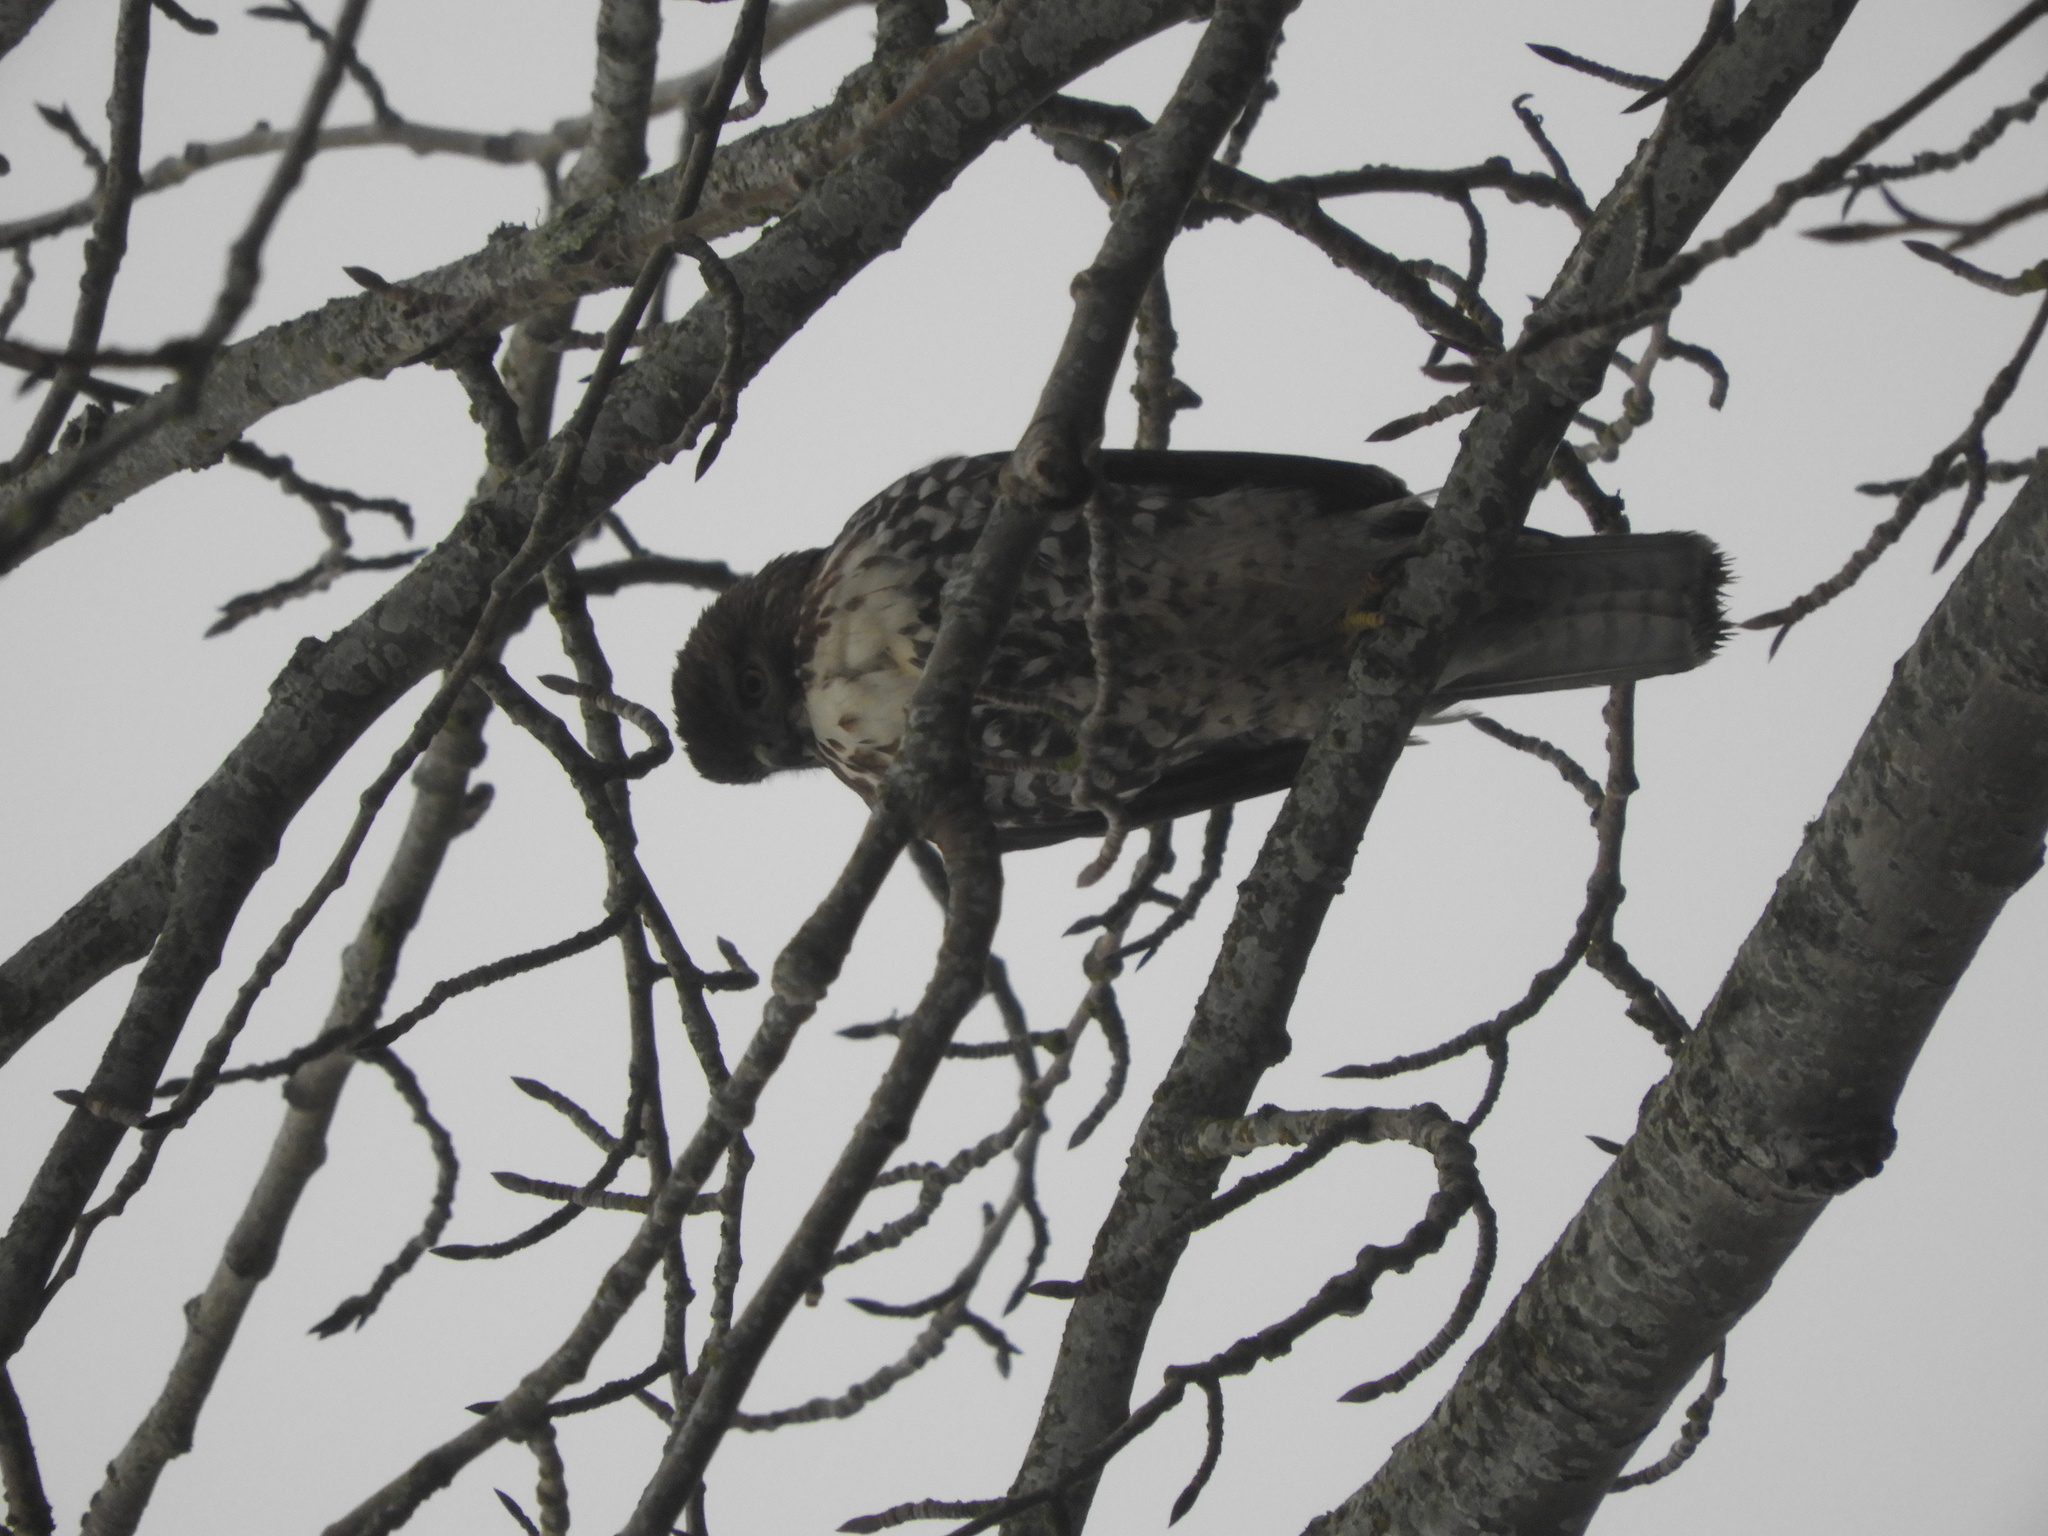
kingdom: Animalia
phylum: Chordata
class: Aves
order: Accipitriformes
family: Accipitridae
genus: Buteo
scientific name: Buteo jamaicensis
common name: Red-tailed hawk
